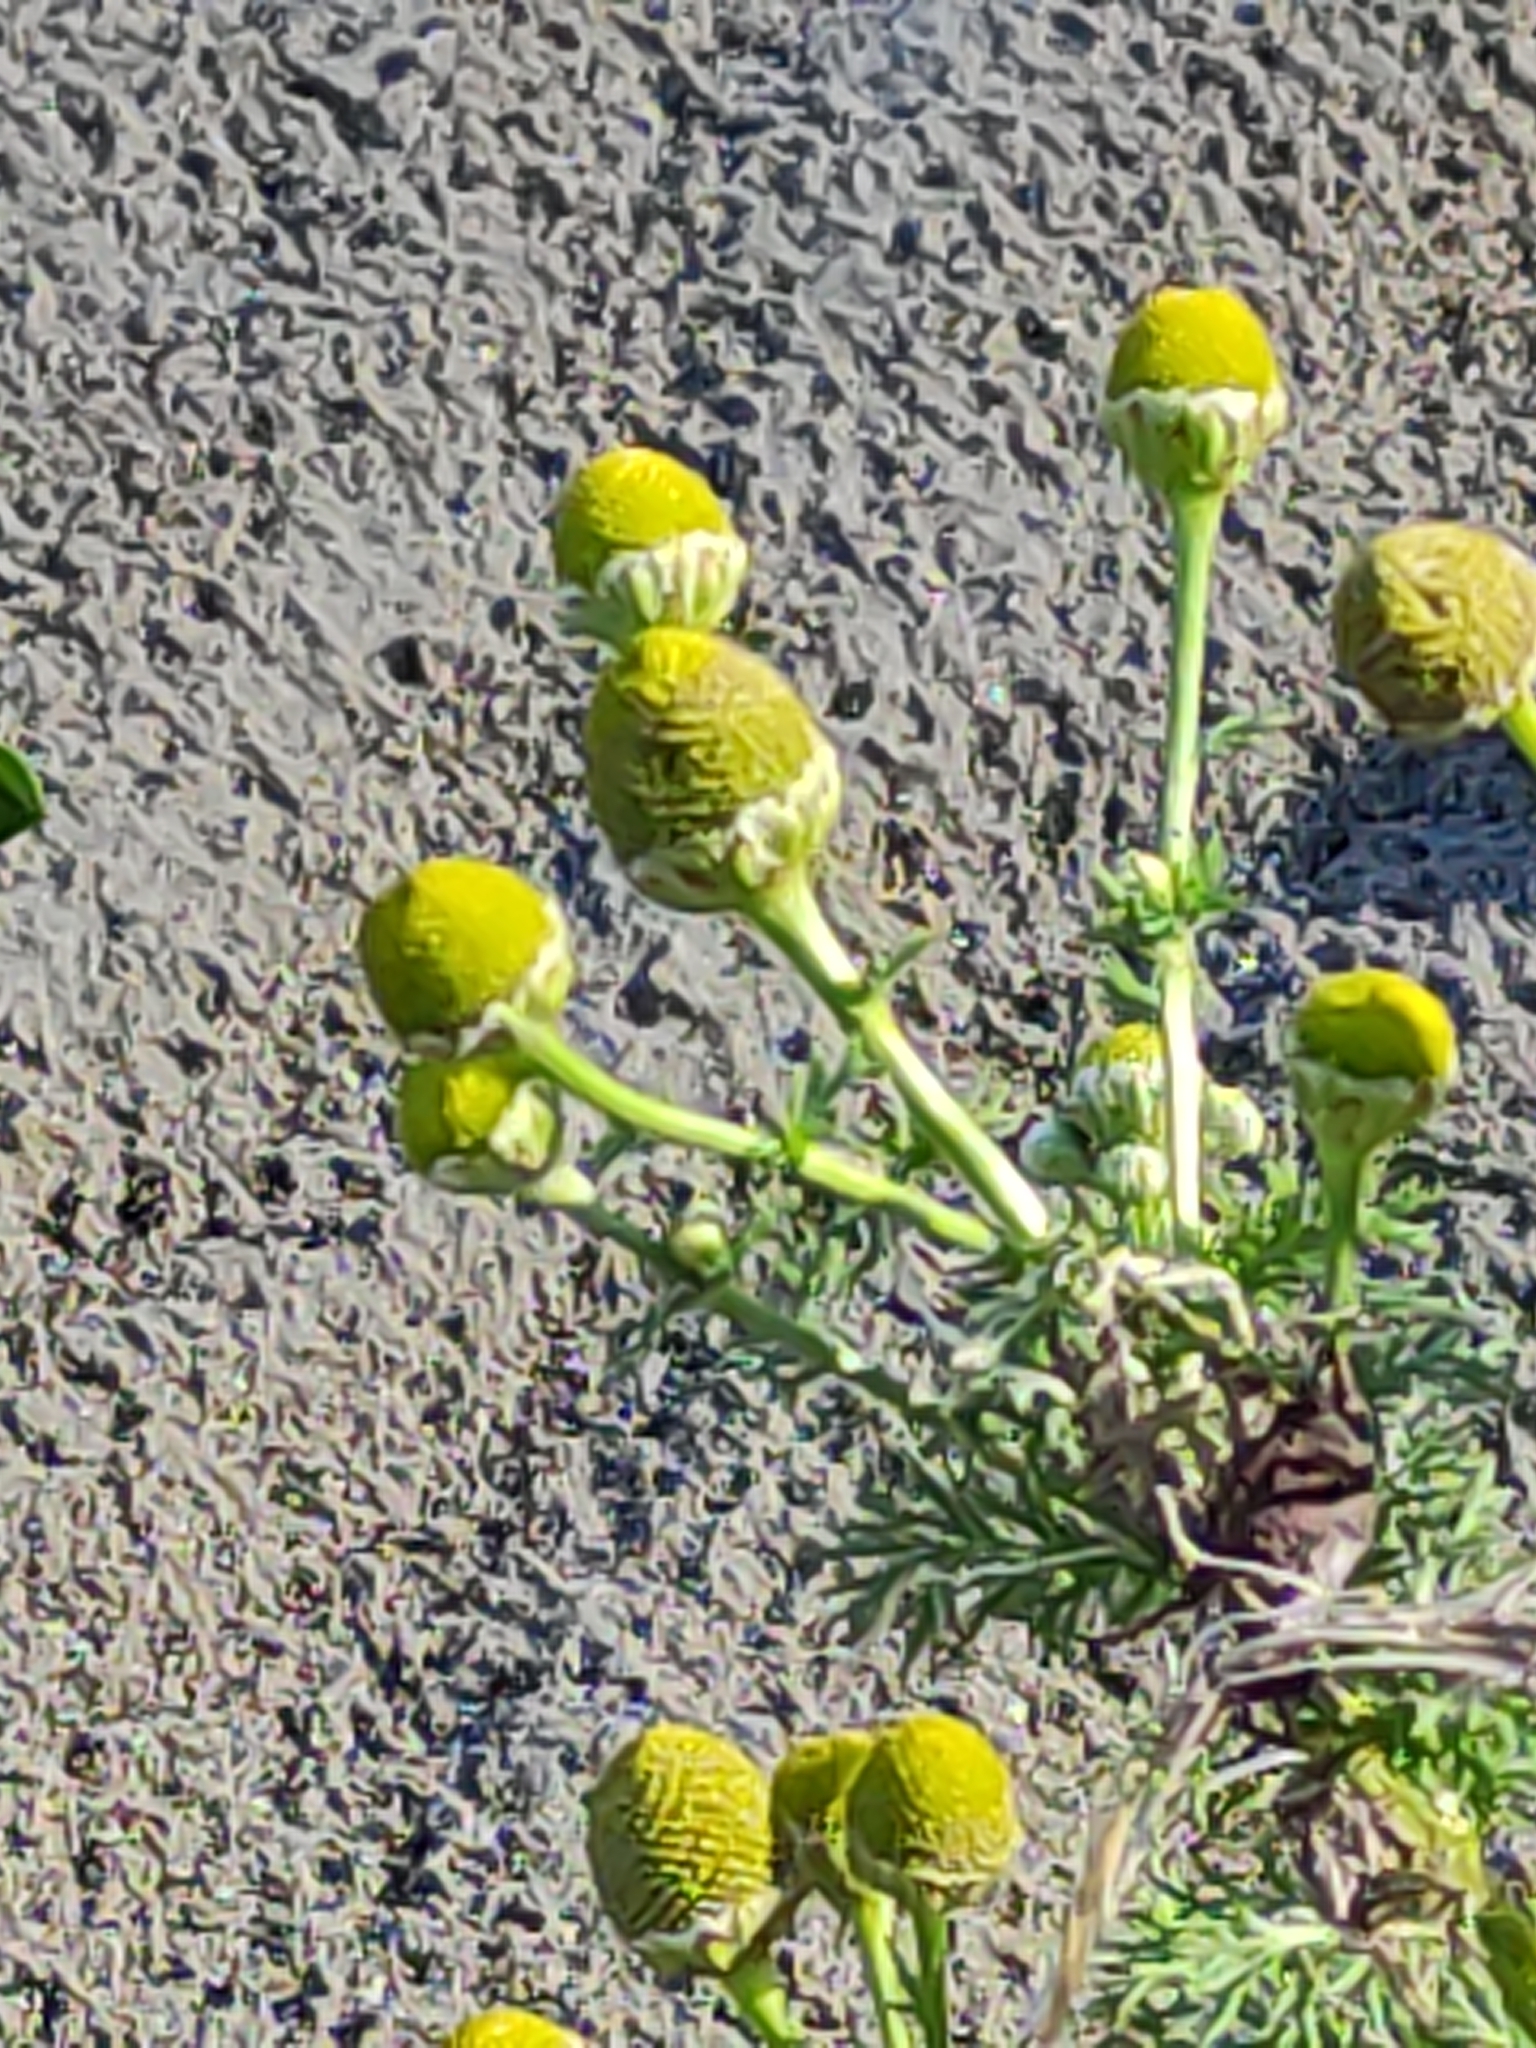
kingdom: Plantae
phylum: Tracheophyta
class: Magnoliopsida
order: Asterales
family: Asteraceae
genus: Matricaria
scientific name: Matricaria discoidea
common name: Disc mayweed
